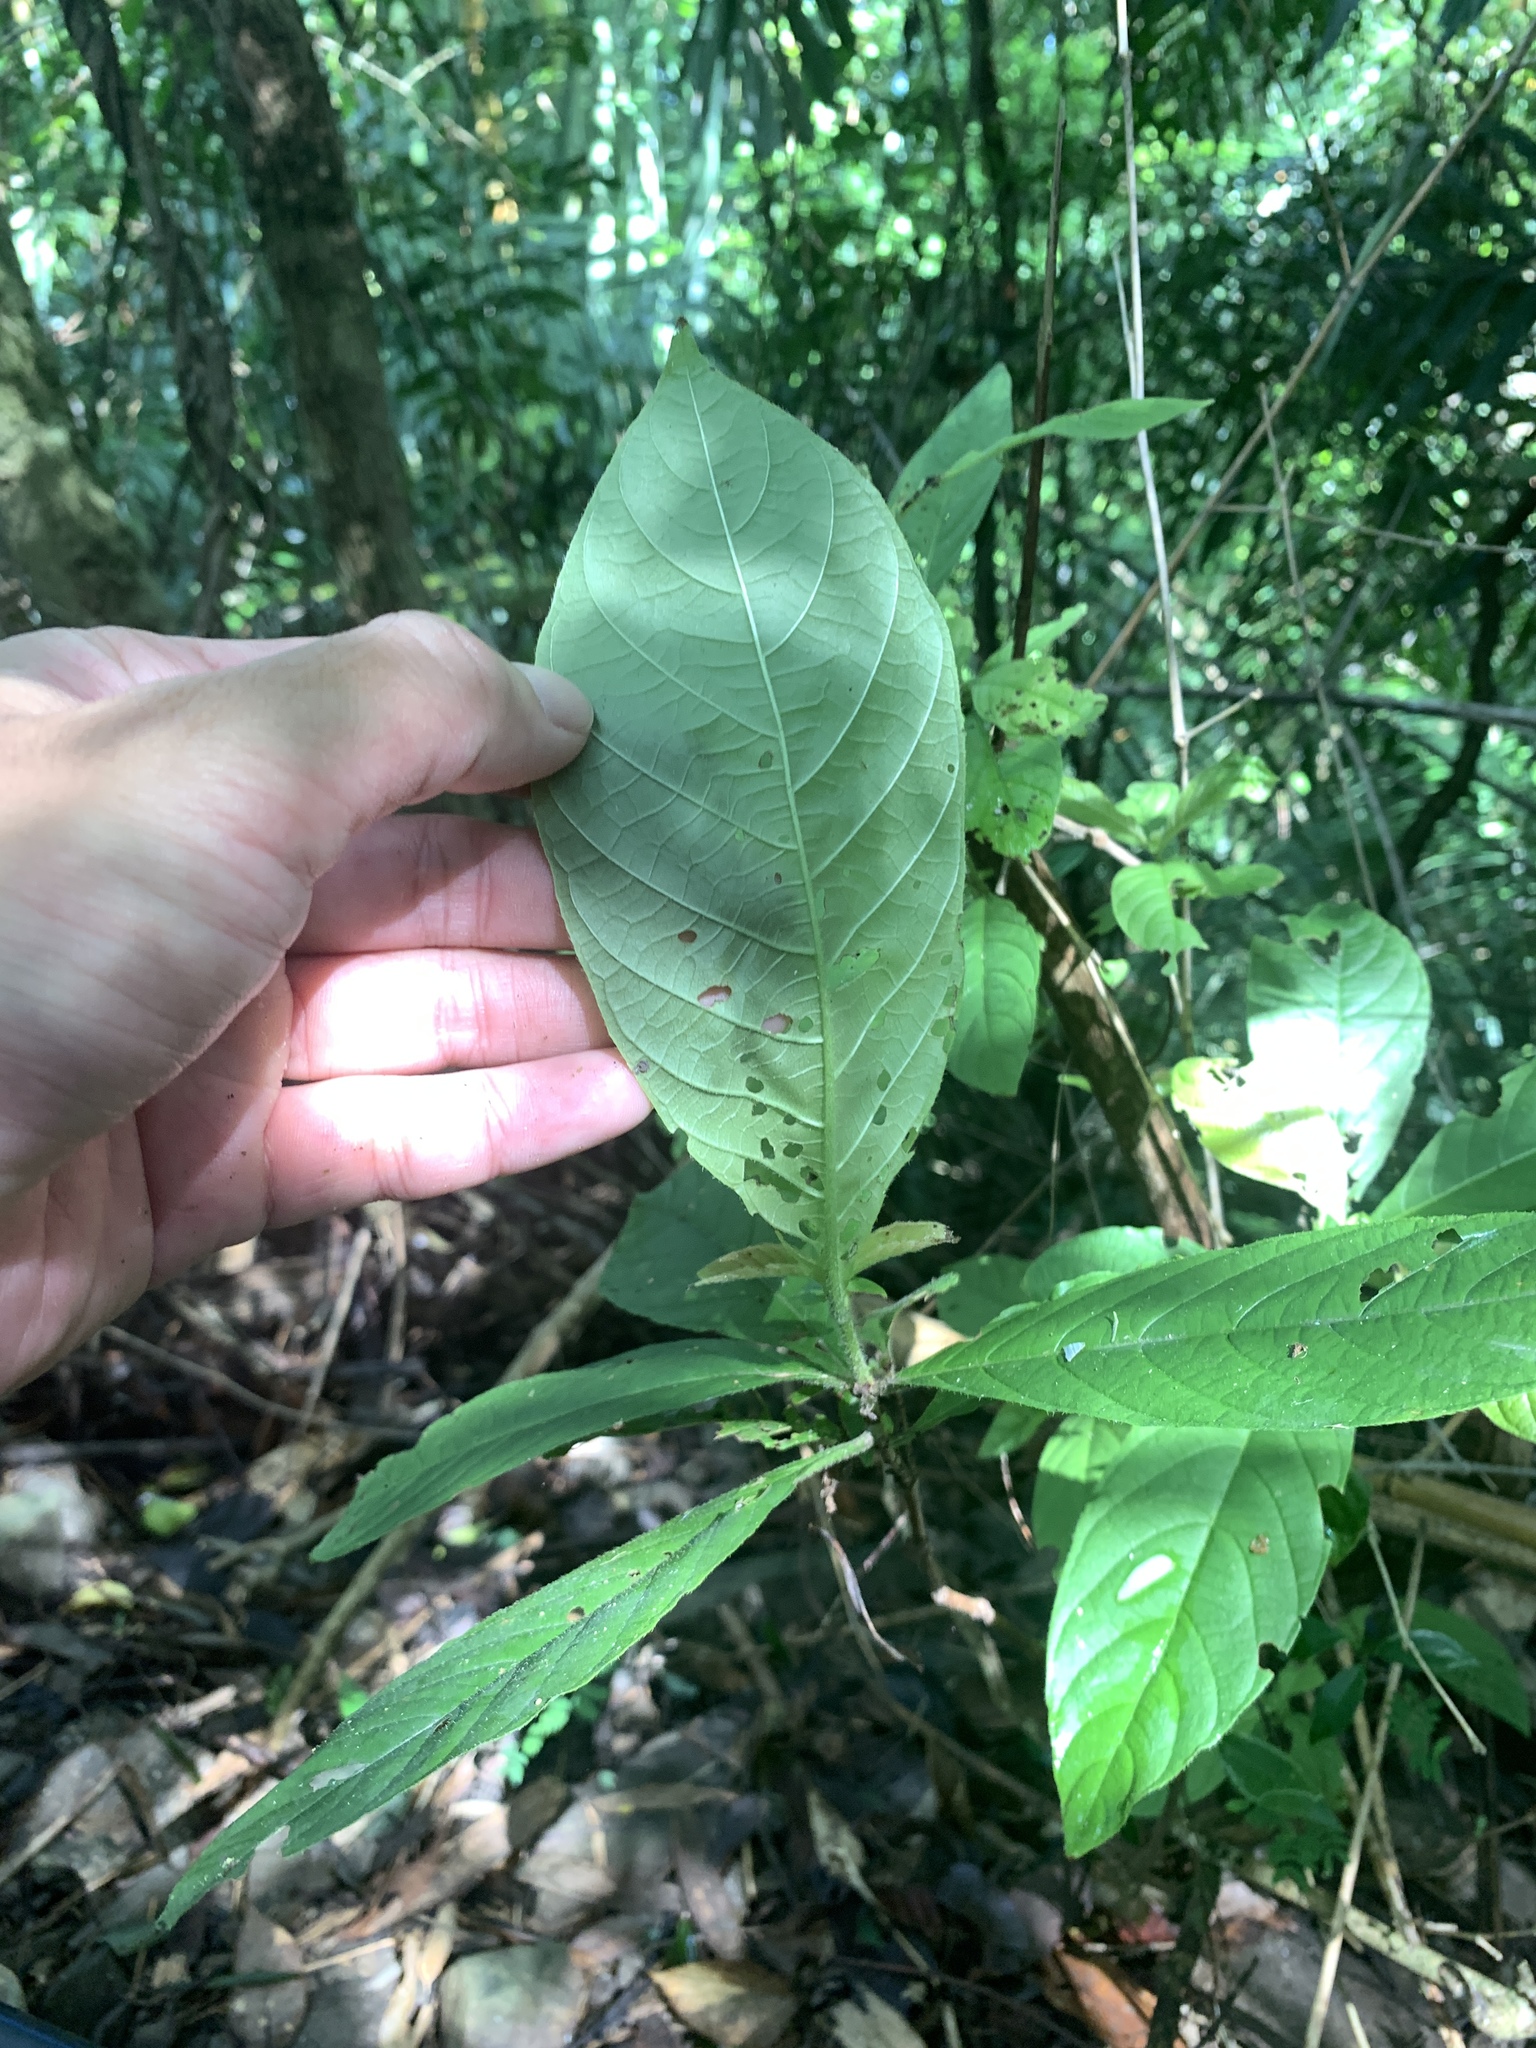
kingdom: Plantae
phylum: Tracheophyta
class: Magnoliopsida
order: Gentianales
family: Rubiaceae
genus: Wendlandia
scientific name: Wendlandia uvariifolia
